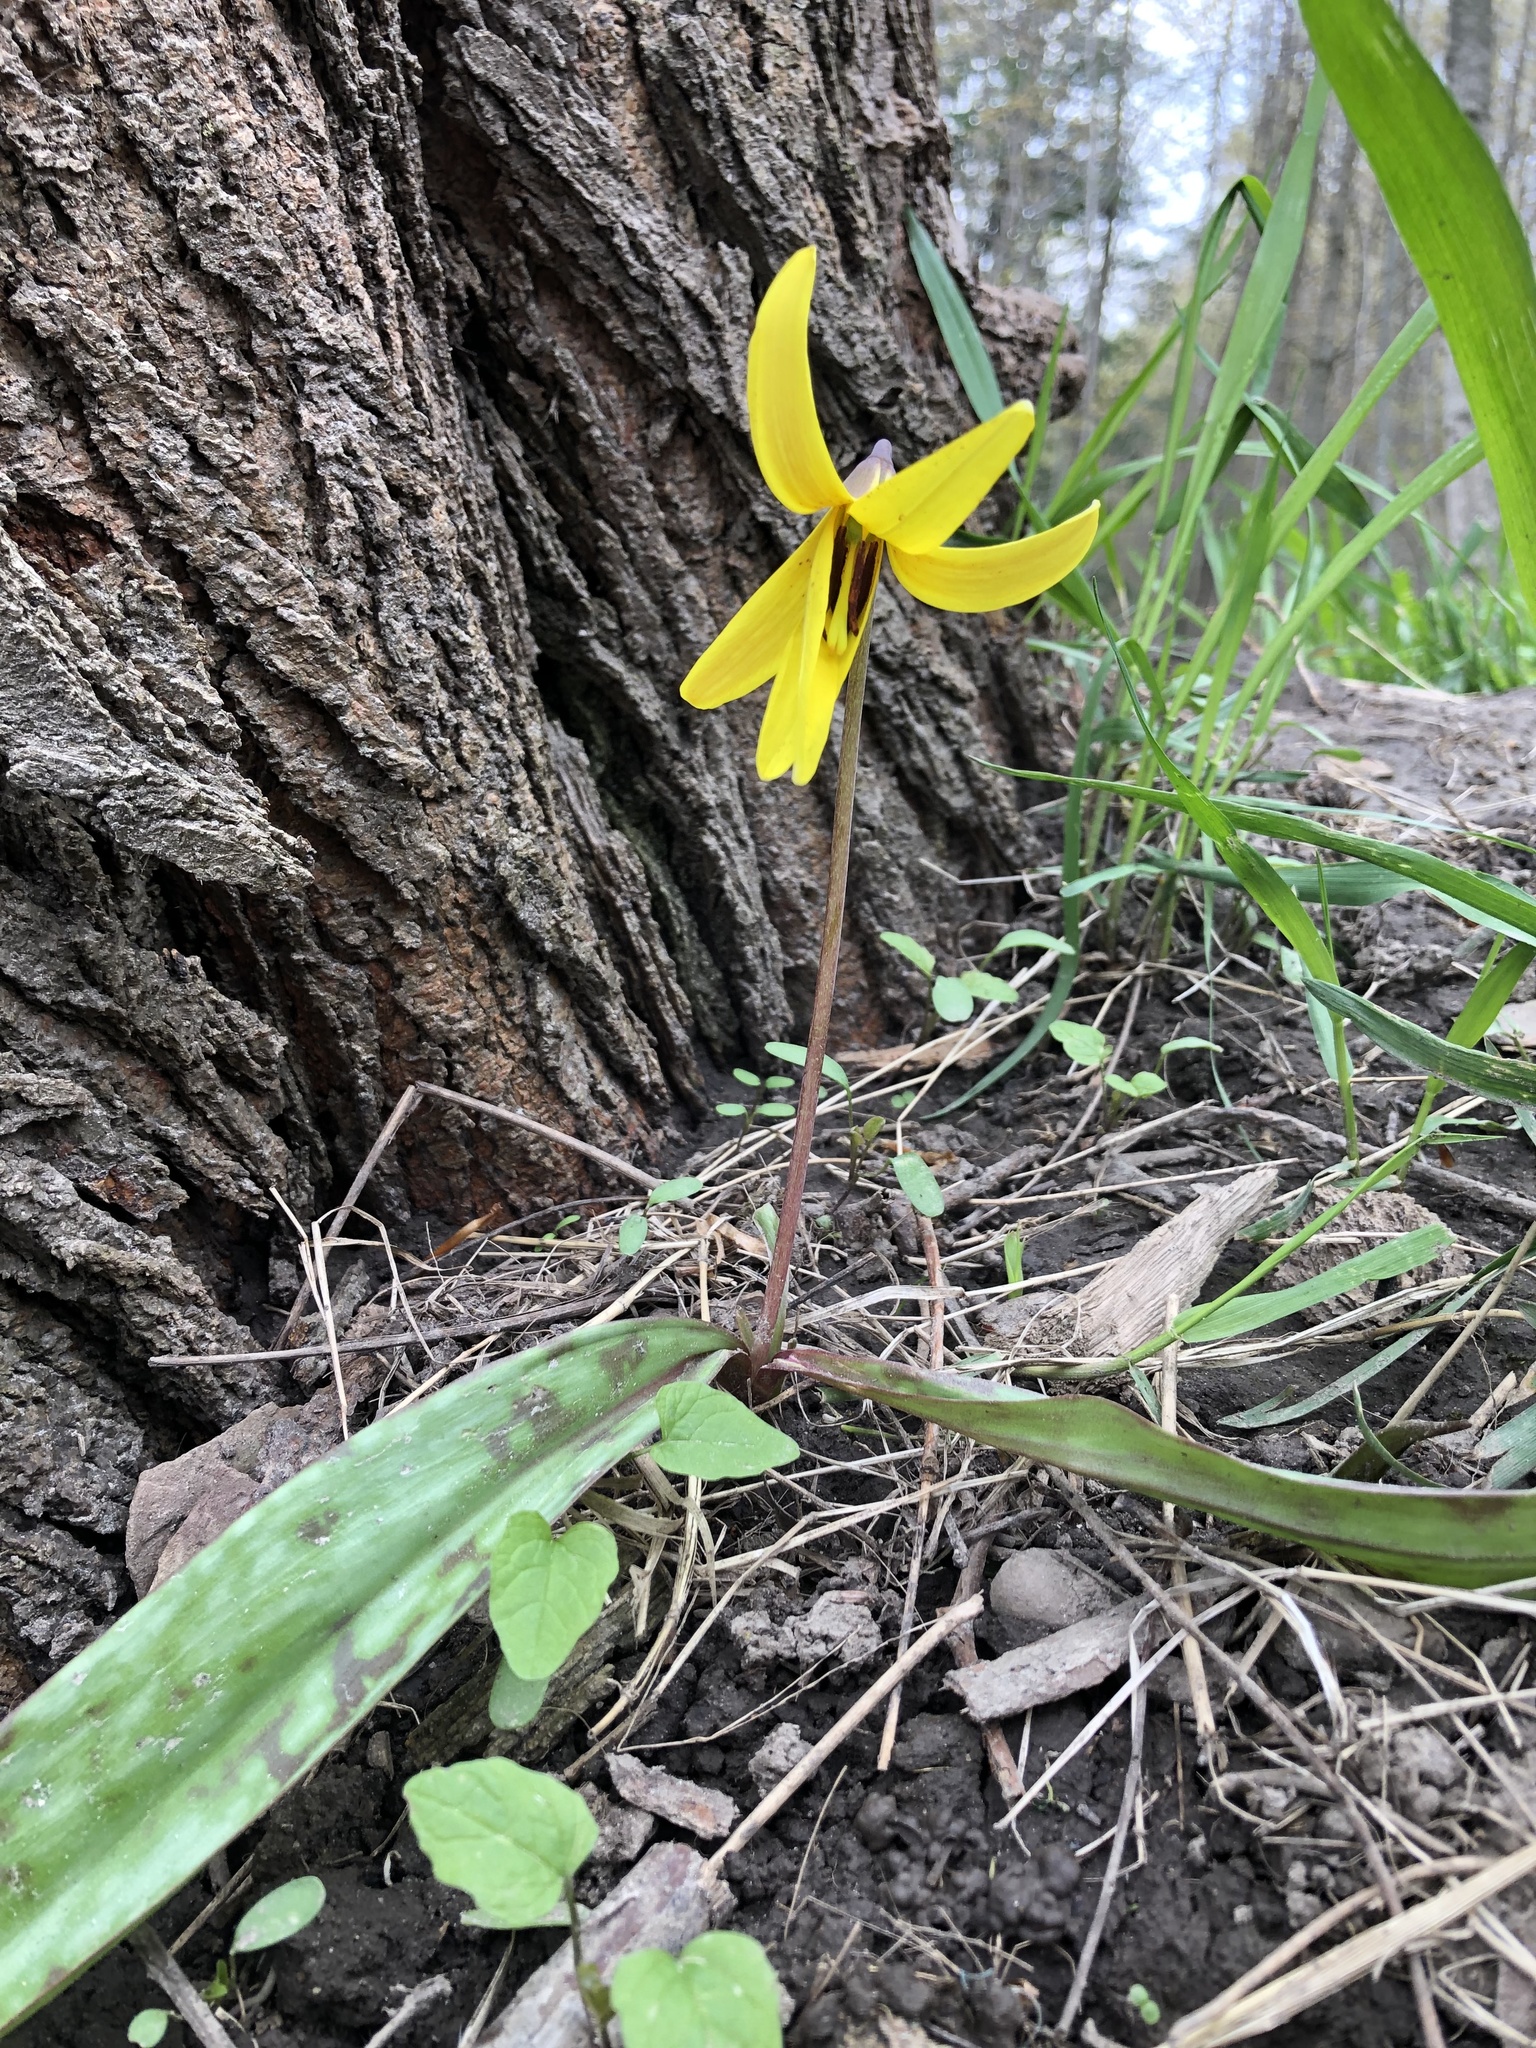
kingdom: Plantae
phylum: Tracheophyta
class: Liliopsida
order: Liliales
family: Liliaceae
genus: Erythronium
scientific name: Erythronium americanum
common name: Yellow adder's-tongue
